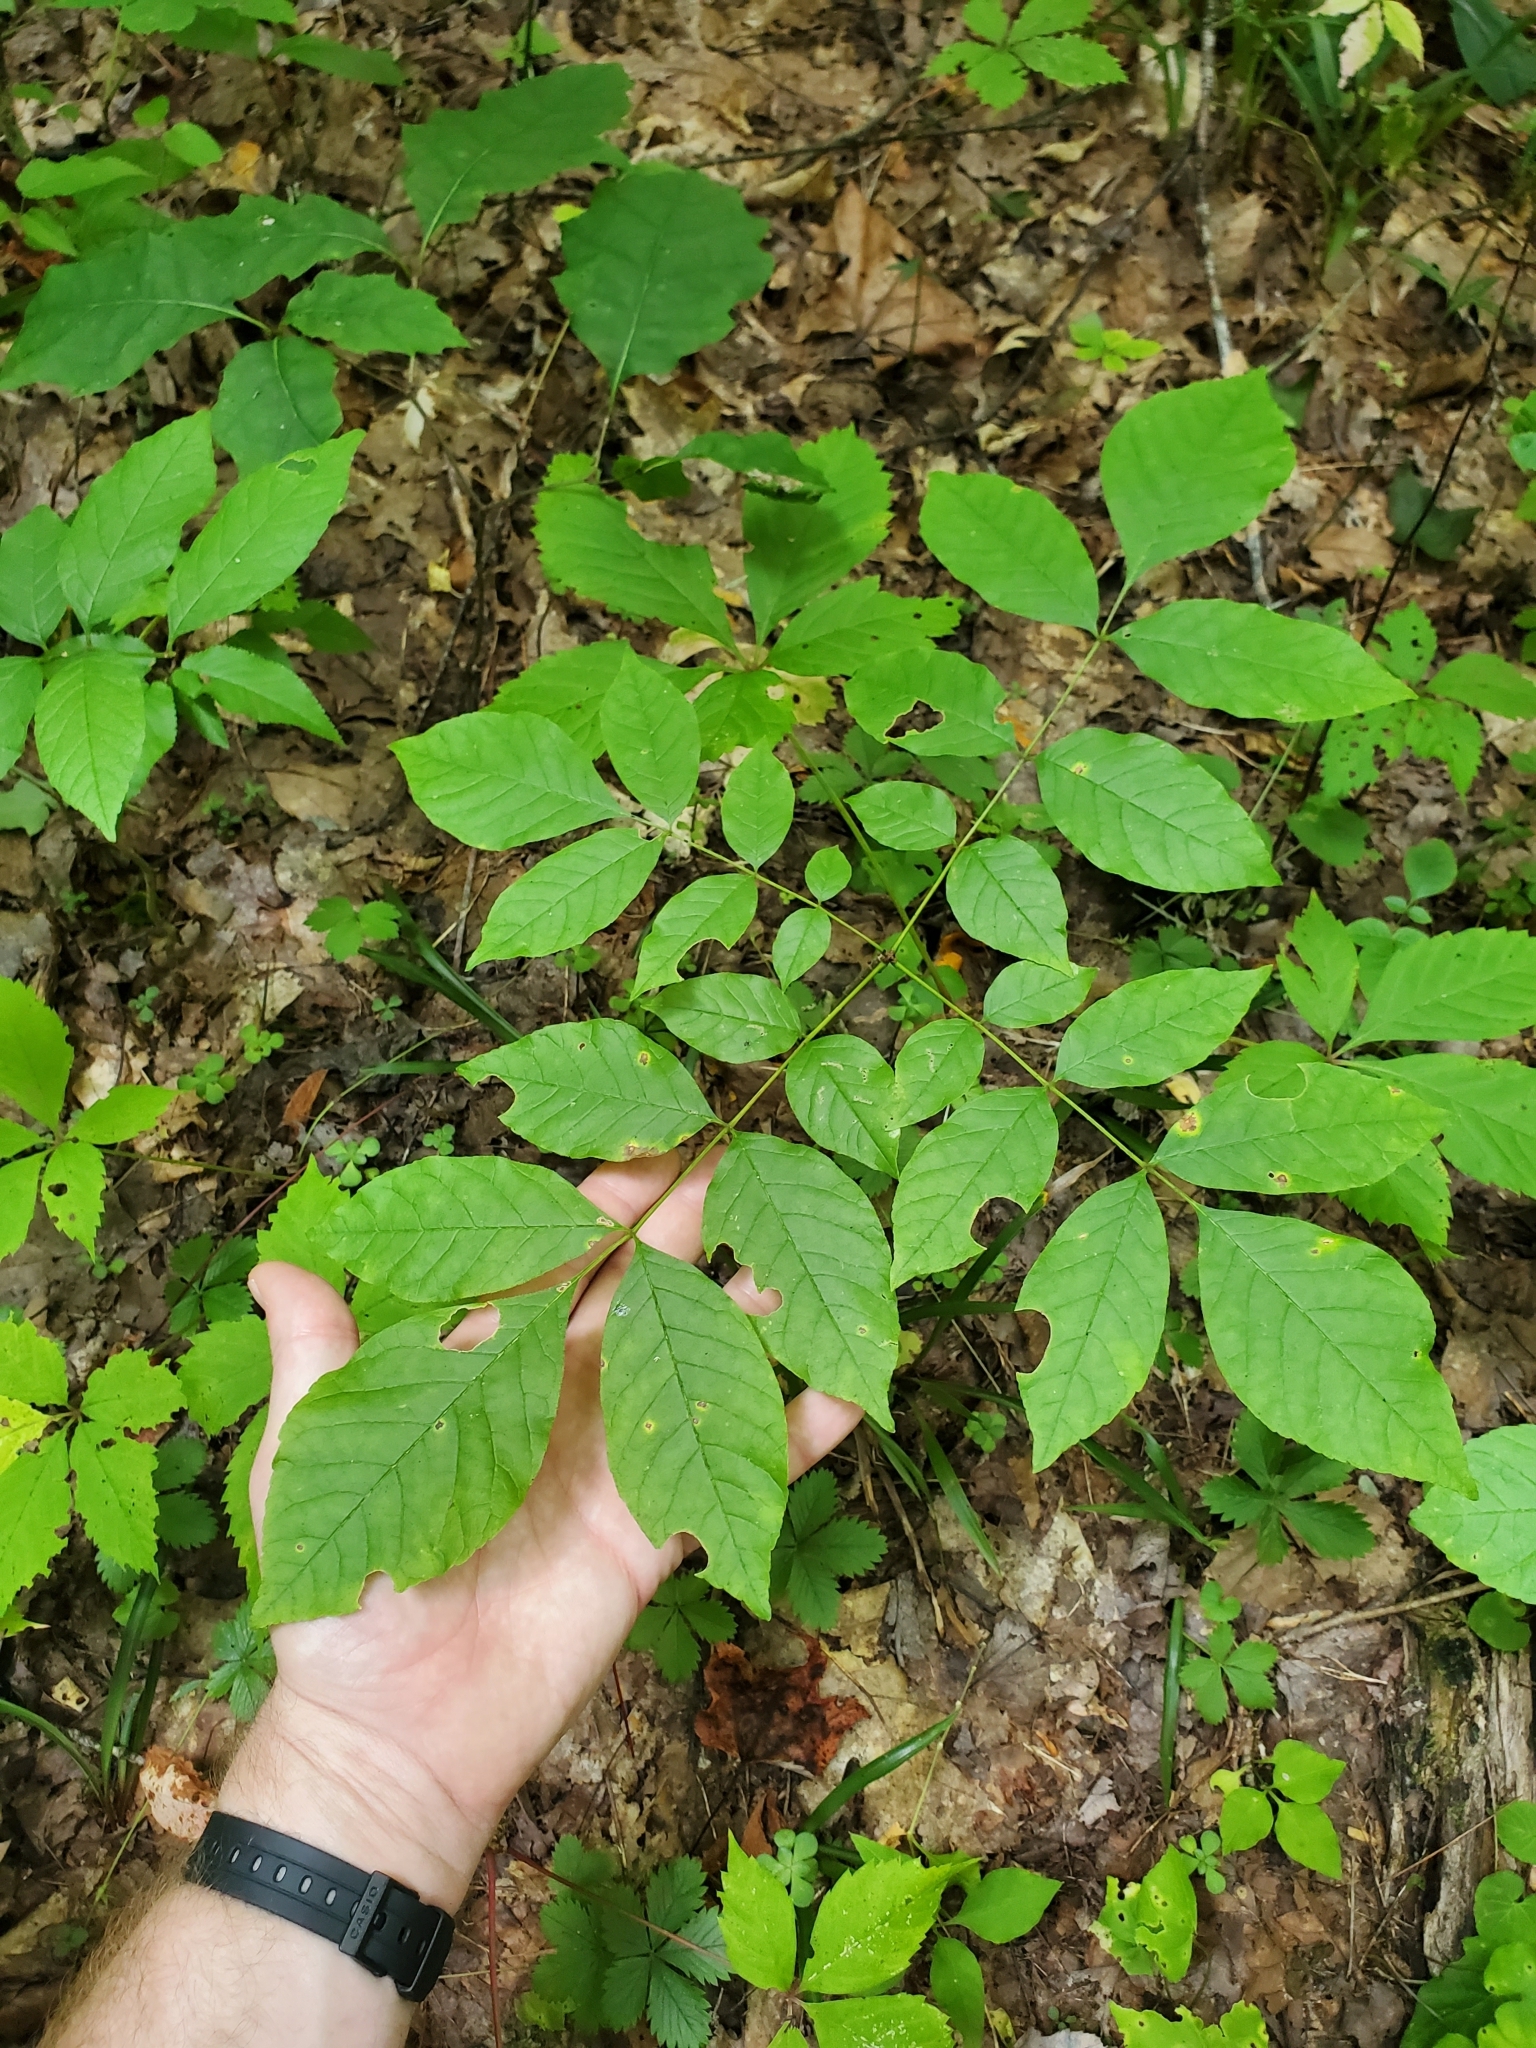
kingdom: Plantae
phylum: Tracheophyta
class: Magnoliopsida
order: Lamiales
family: Oleaceae
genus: Fraxinus
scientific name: Fraxinus pennsylvanica
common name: Green ash
